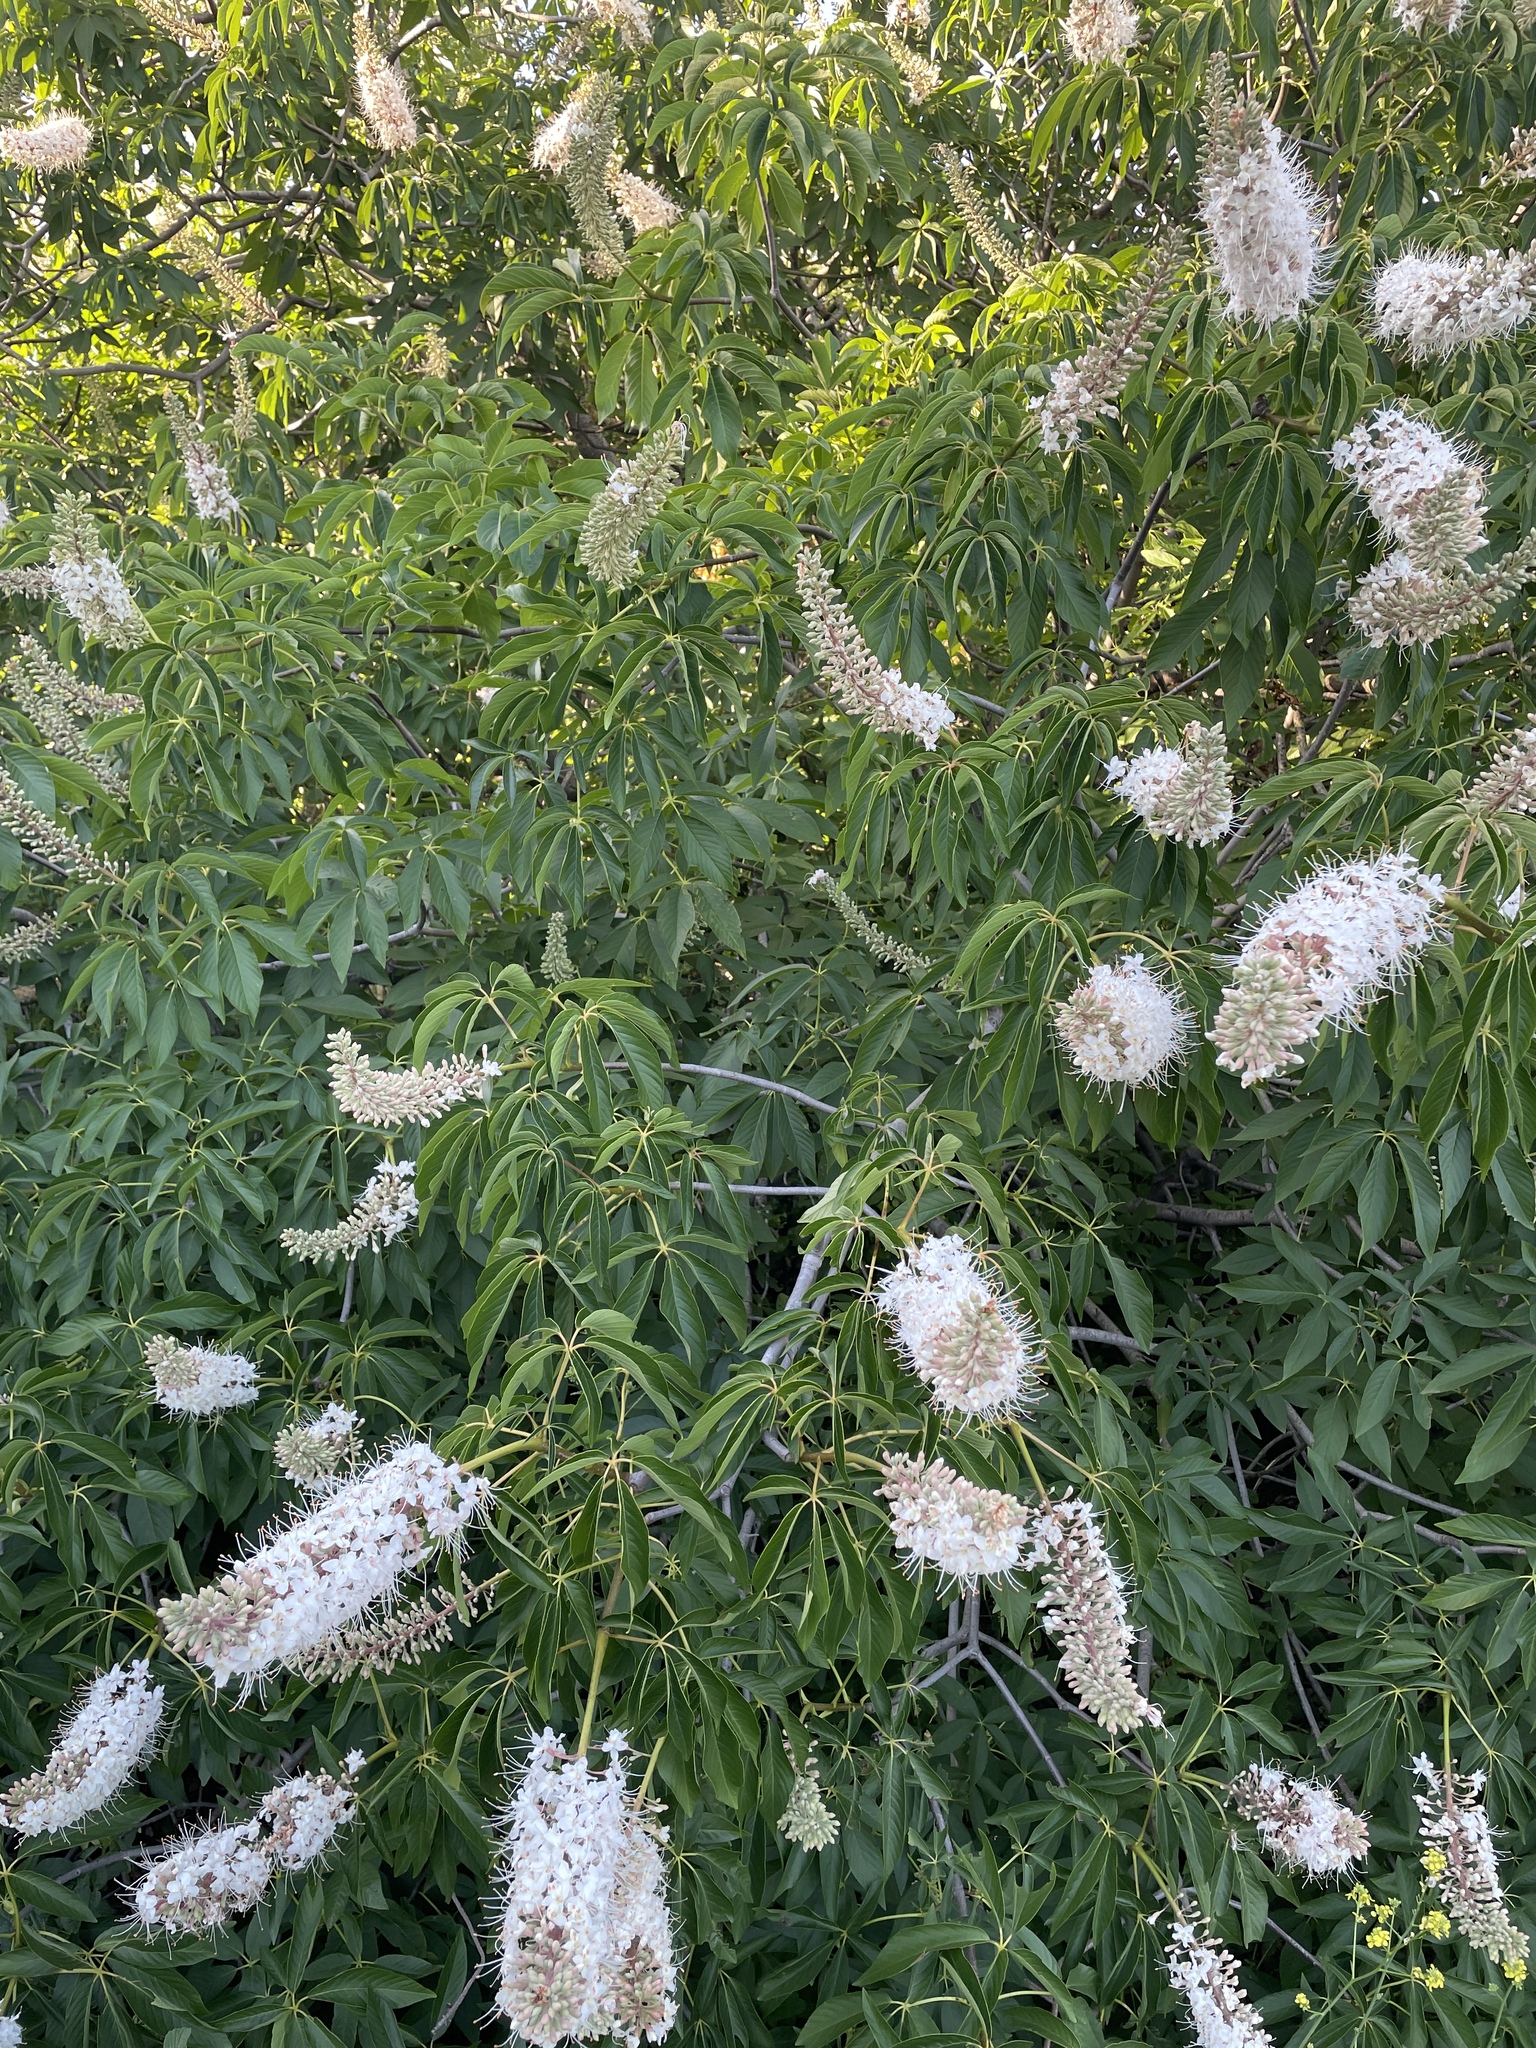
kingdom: Plantae
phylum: Tracheophyta
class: Magnoliopsida
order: Sapindales
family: Sapindaceae
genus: Aesculus
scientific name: Aesculus californica
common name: California buckeye
